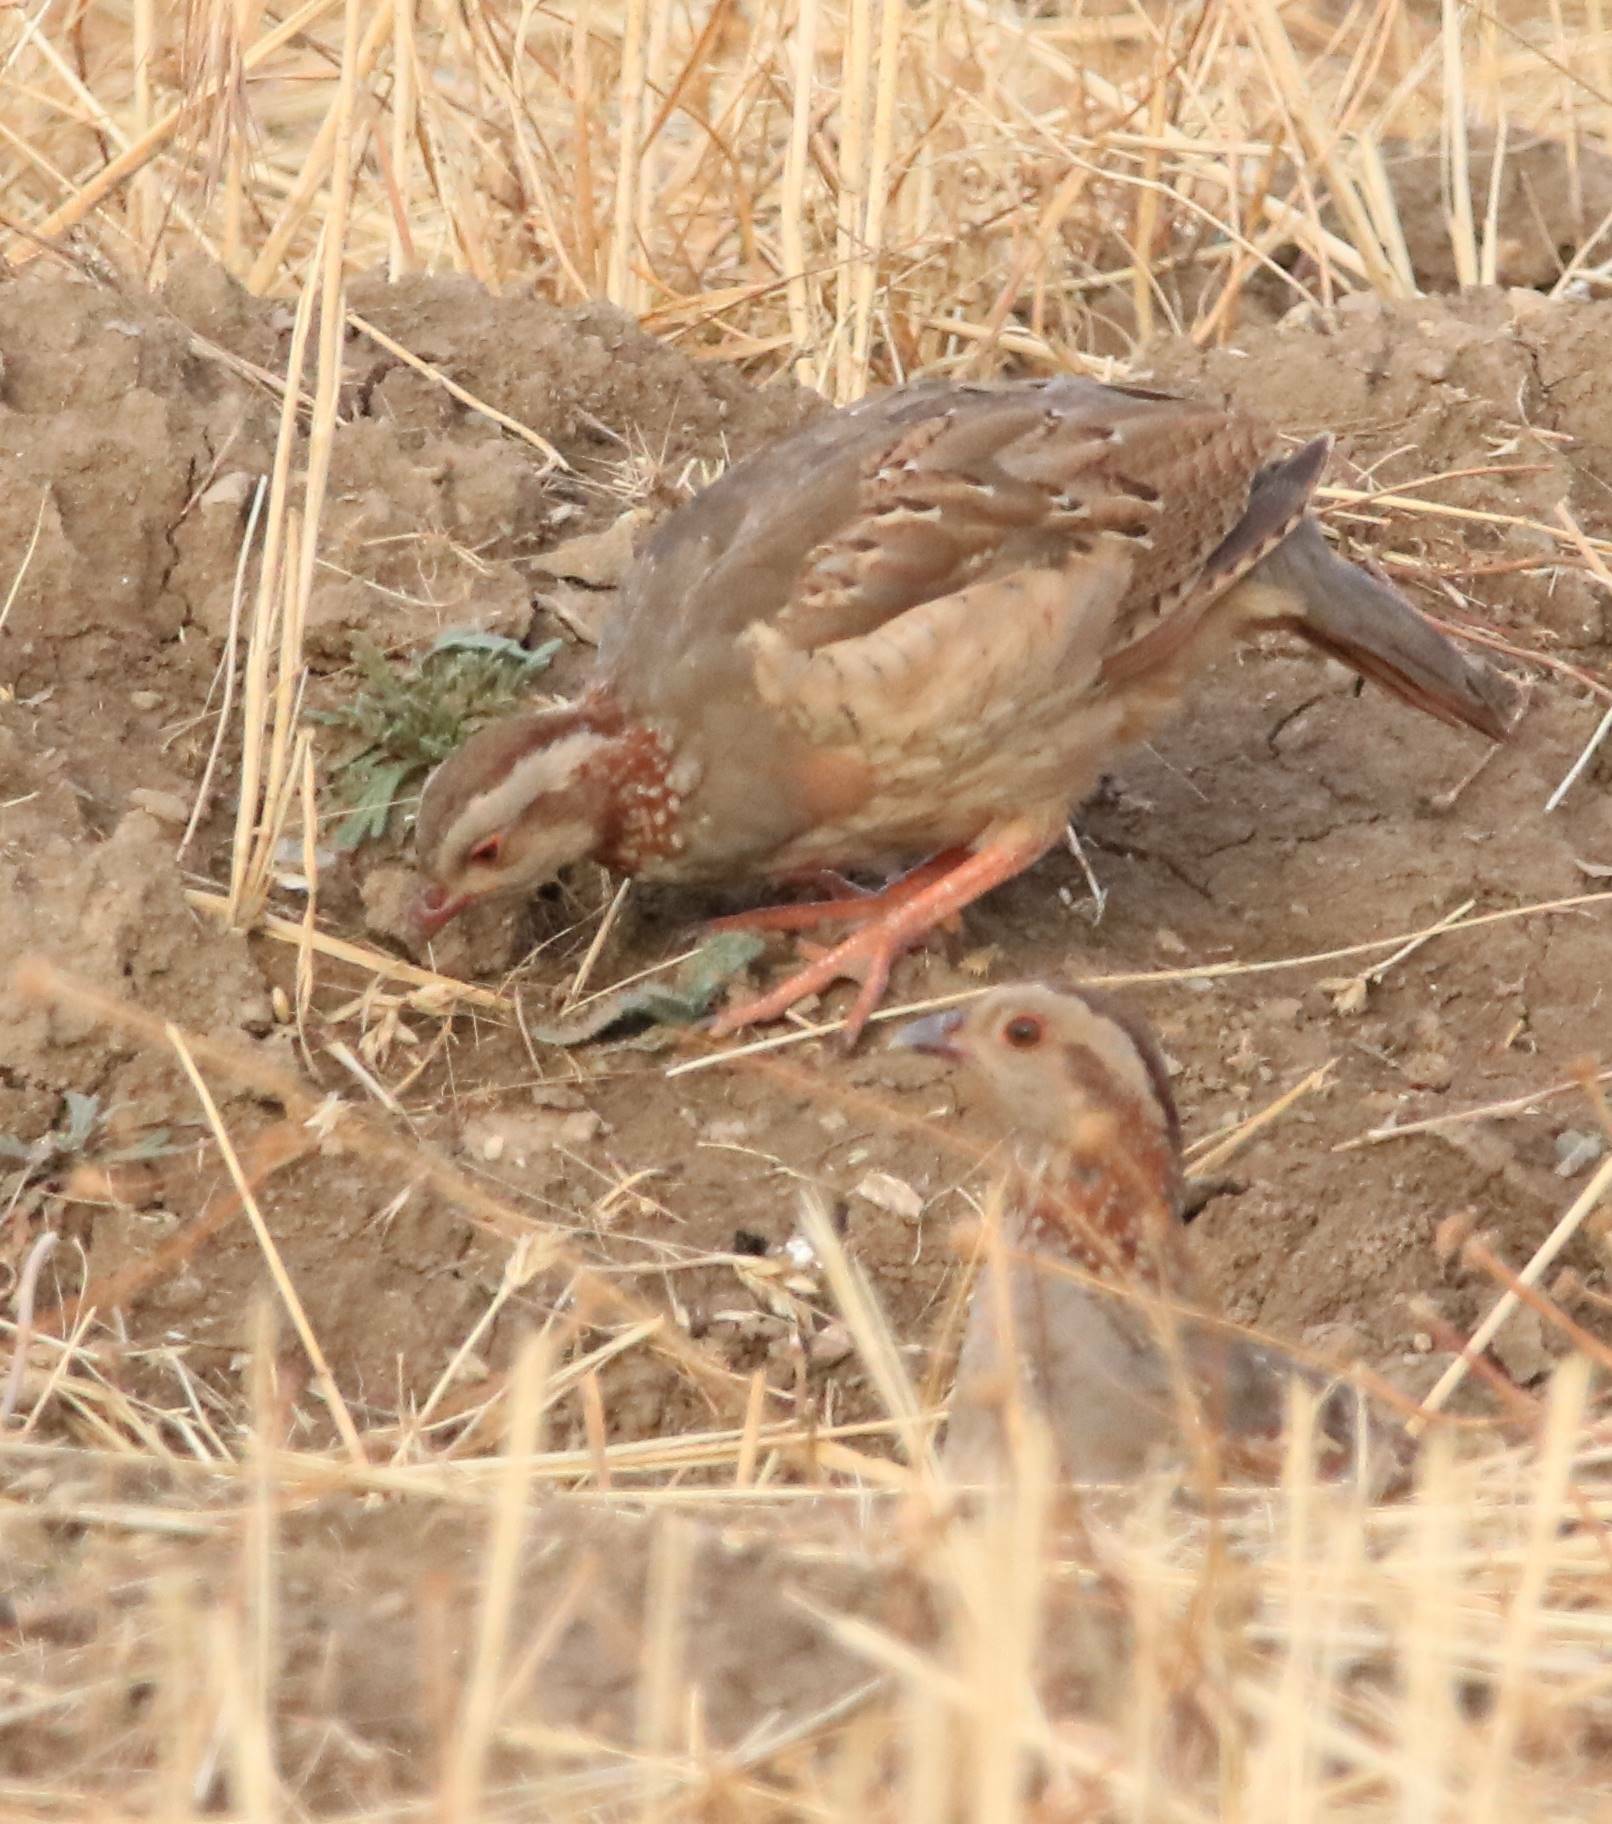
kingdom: Animalia
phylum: Chordata
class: Aves
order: Galliformes
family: Phasianidae
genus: Alectoris
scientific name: Alectoris barbara
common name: Barbary partridge
